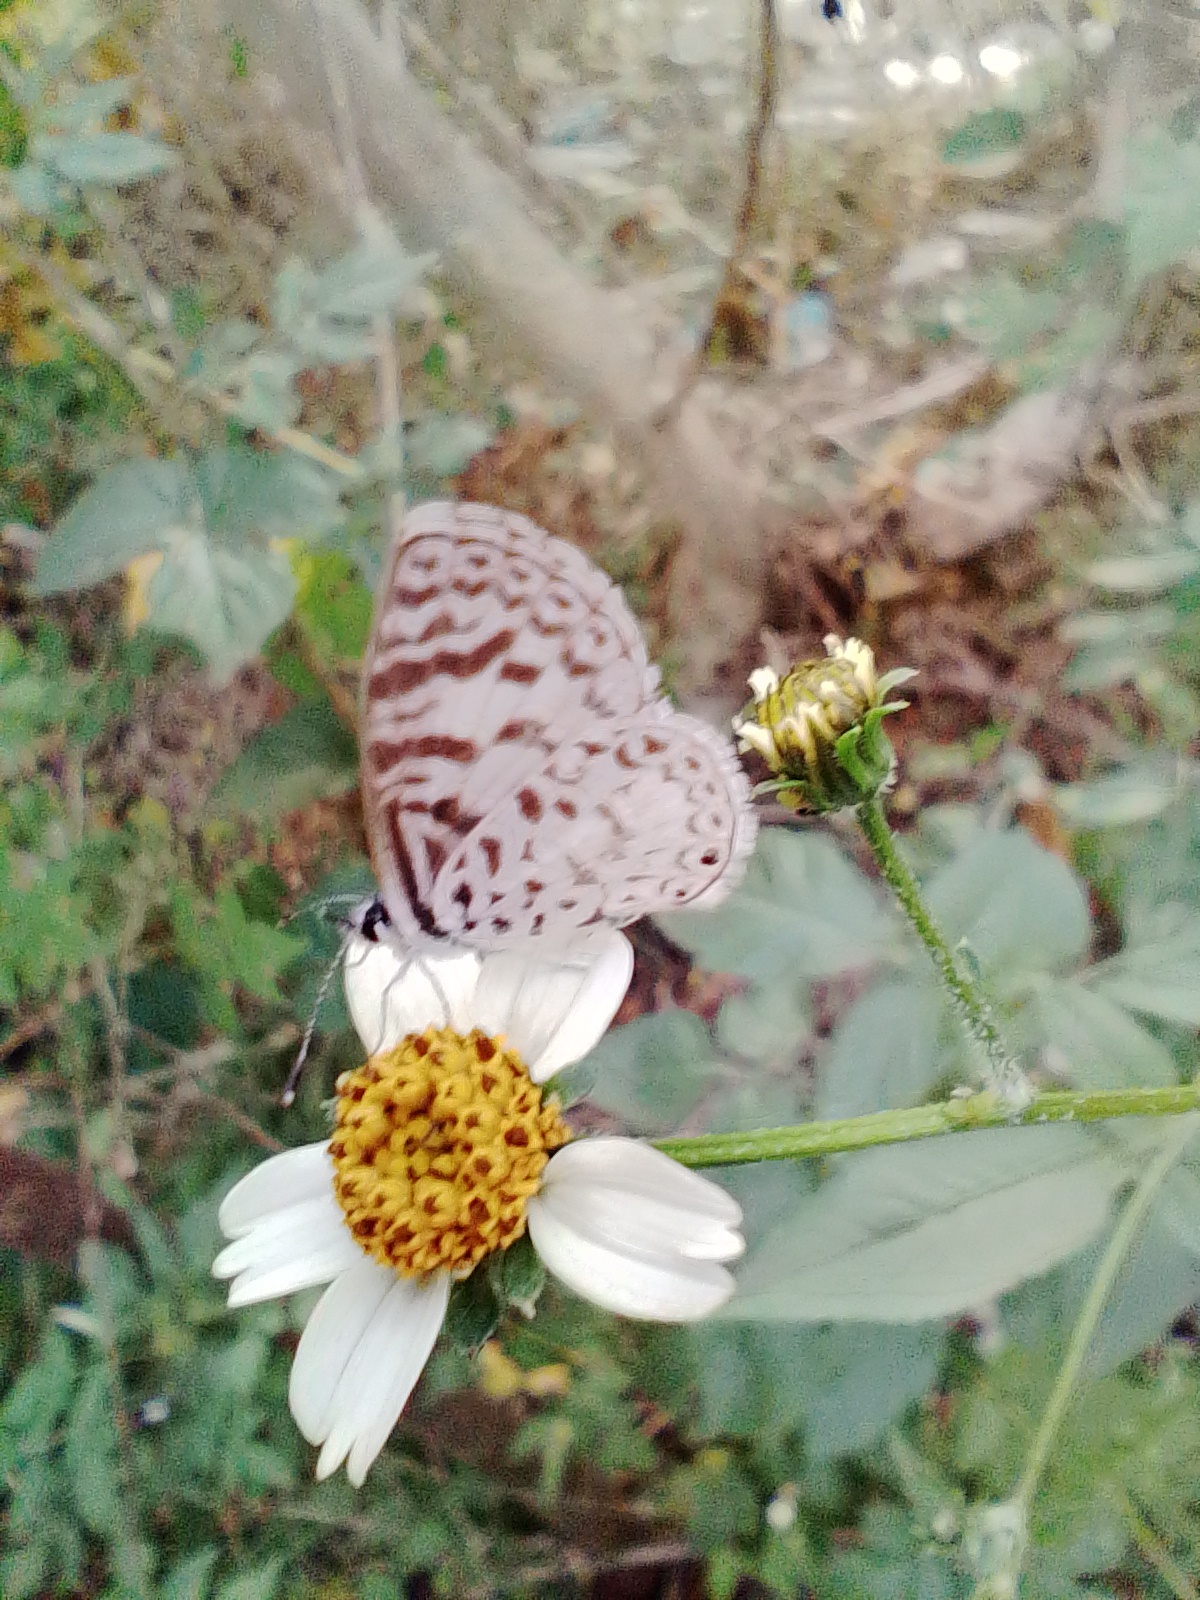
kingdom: Animalia
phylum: Arthropoda
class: Insecta
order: Lepidoptera
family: Lycaenidae
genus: Leptotes
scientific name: Leptotes cassius
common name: Cassius blue
